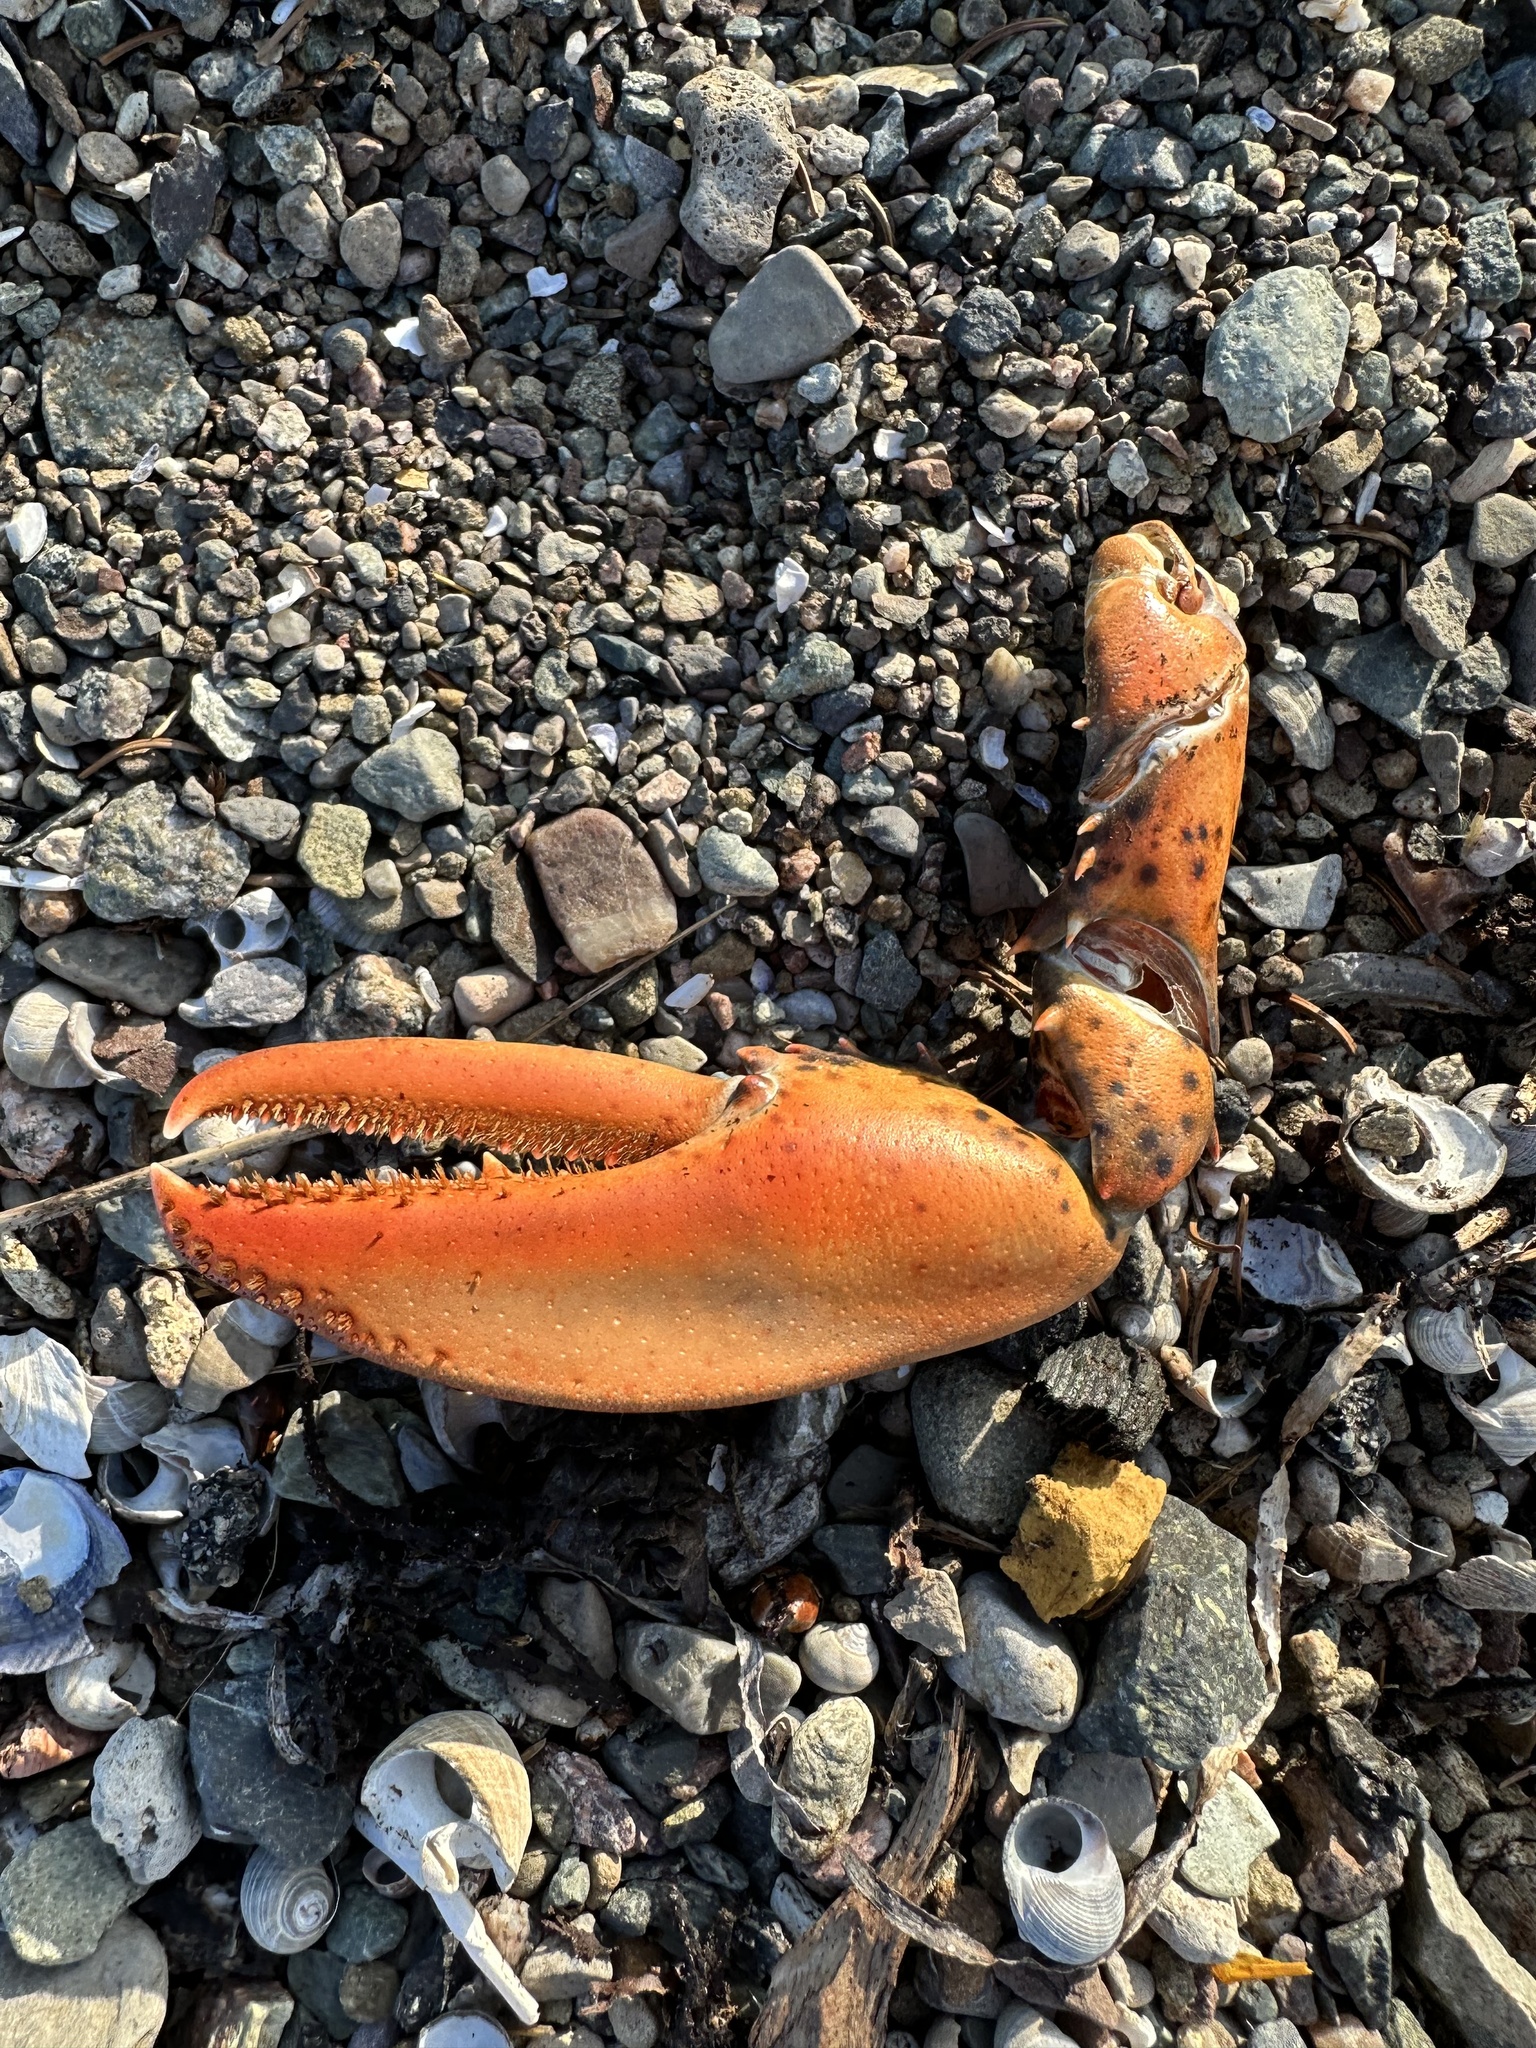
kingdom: Animalia
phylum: Arthropoda
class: Malacostraca
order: Decapoda
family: Nephropidae
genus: Homarus
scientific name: Homarus americanus
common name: American lobster
